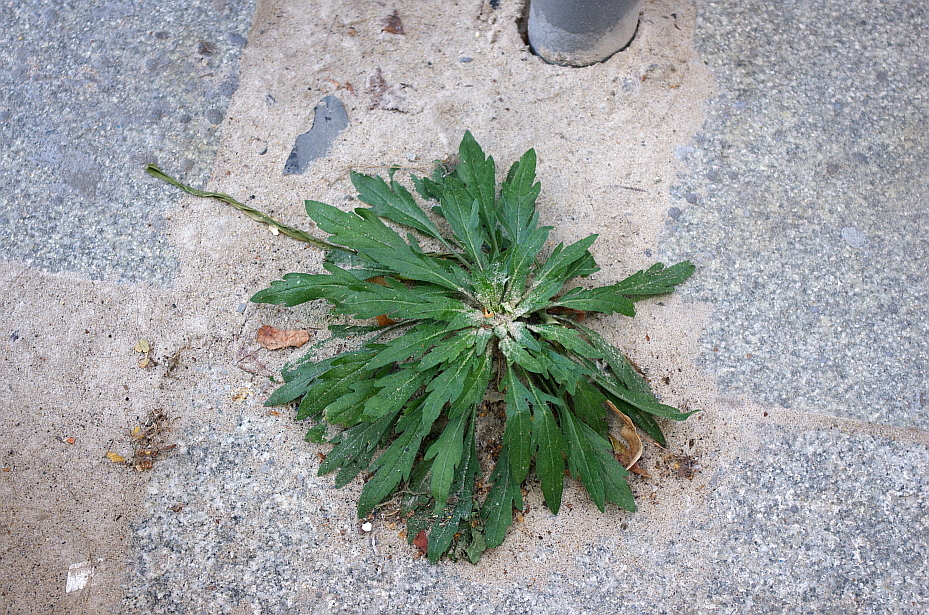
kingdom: Plantae
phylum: Tracheophyta
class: Magnoliopsida
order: Asterales
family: Asteraceae
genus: Erigeron
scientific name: Erigeron canadensis
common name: Canadian fleabane
